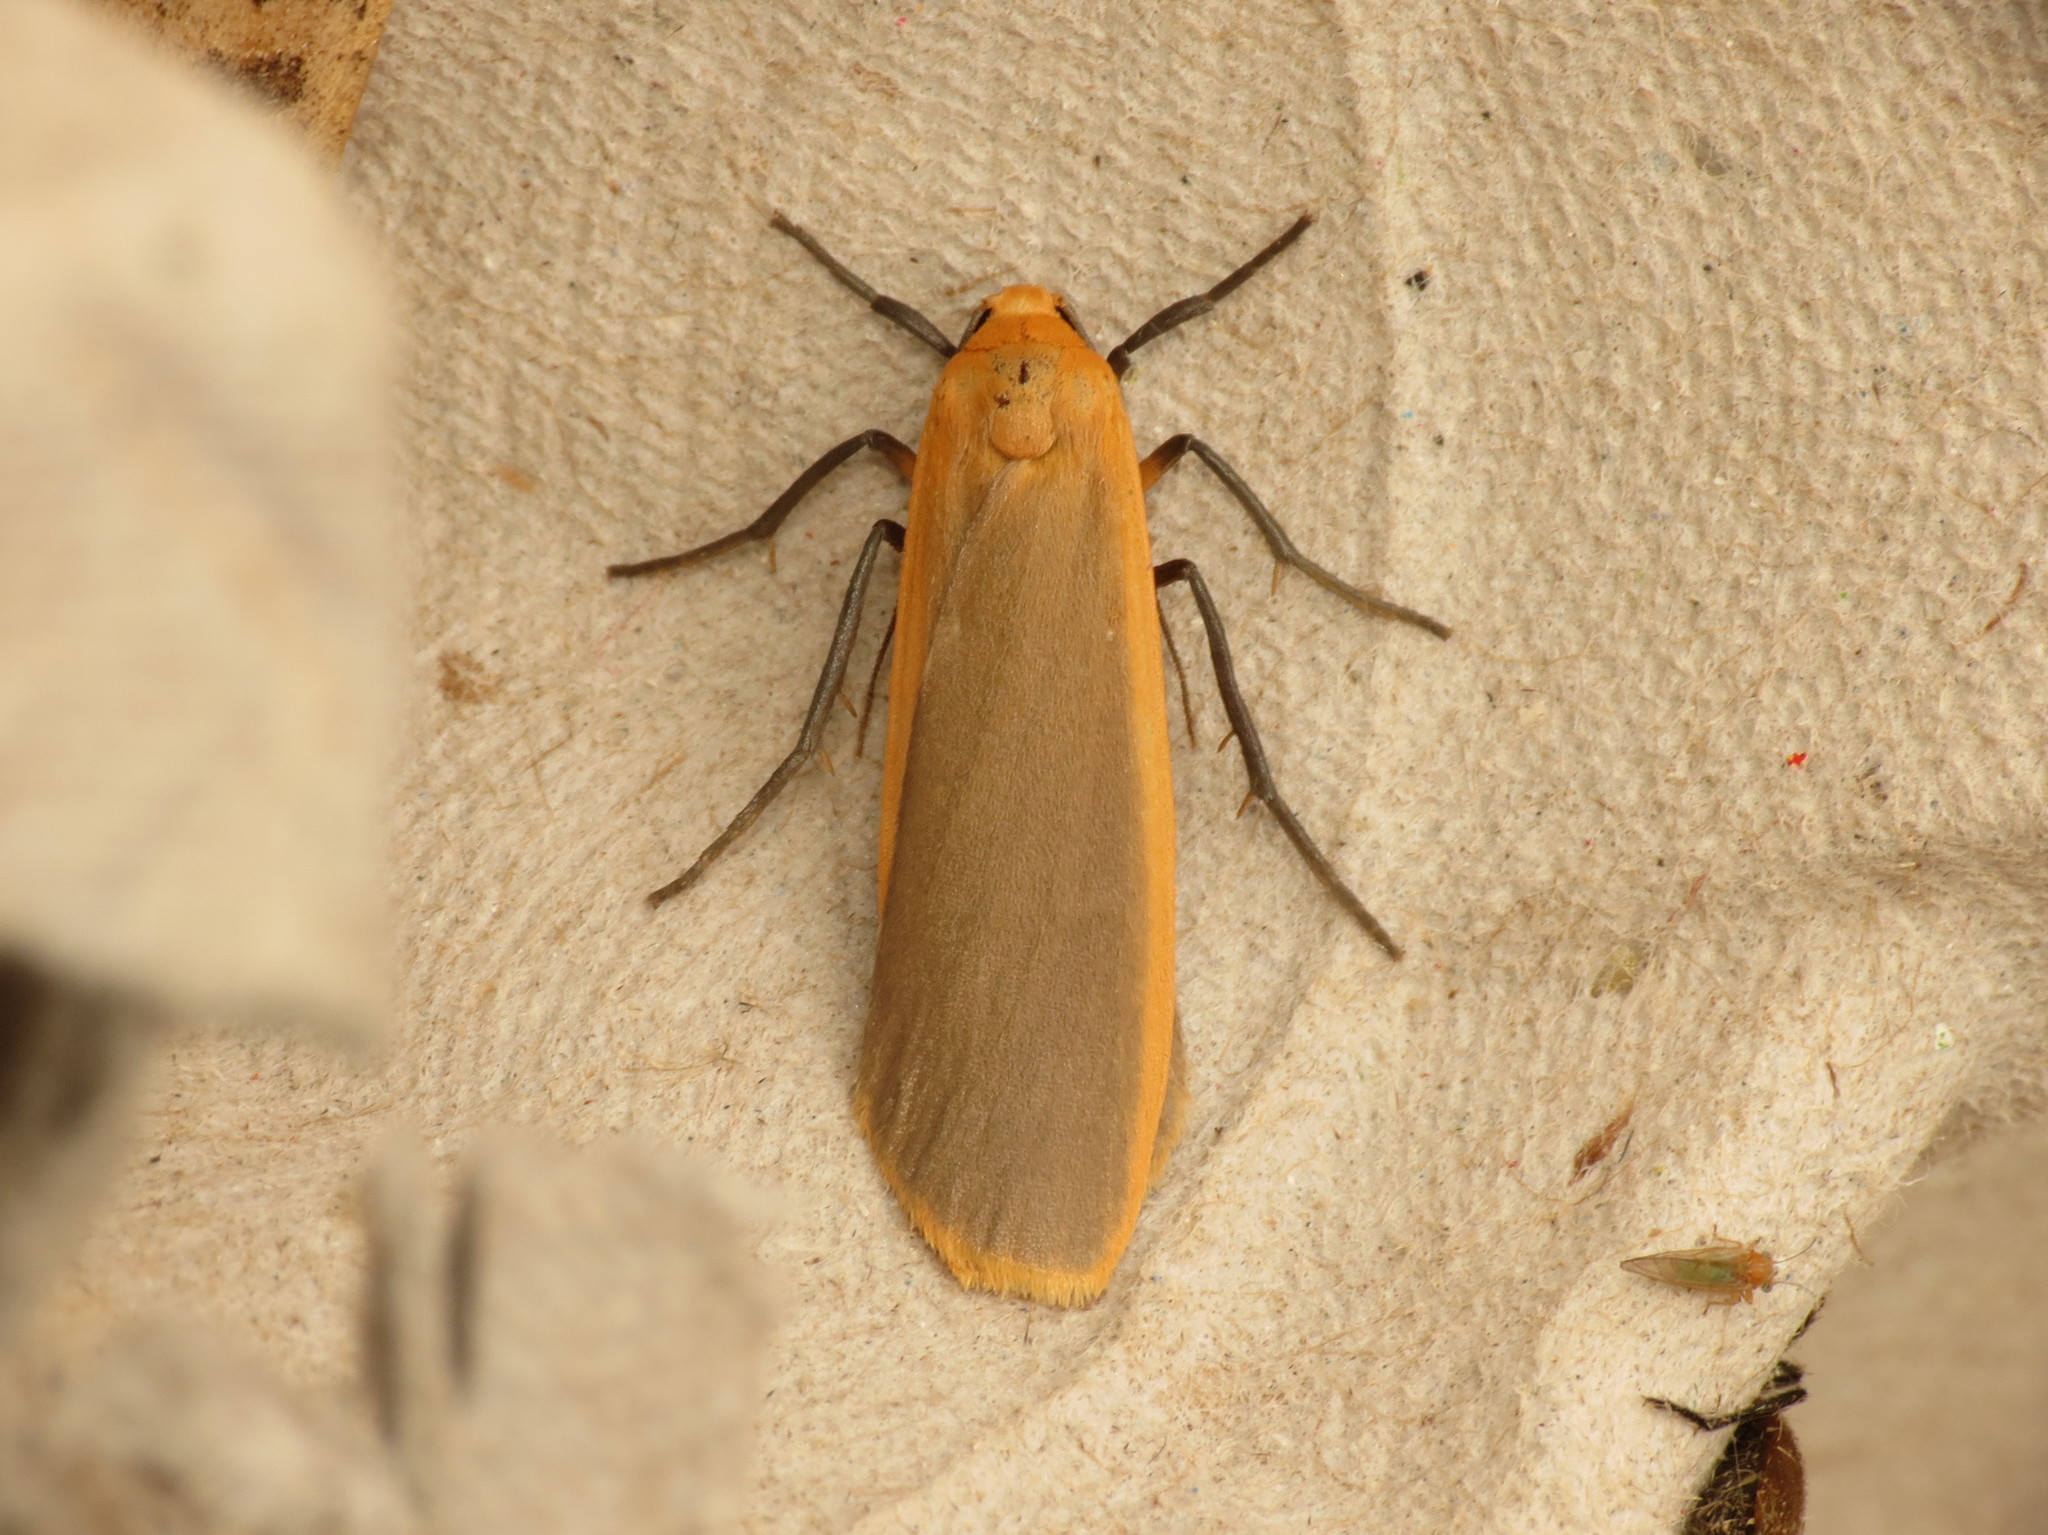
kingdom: Animalia
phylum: Arthropoda
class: Insecta
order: Lepidoptera
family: Erebidae
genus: Katha
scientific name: Katha depressa
